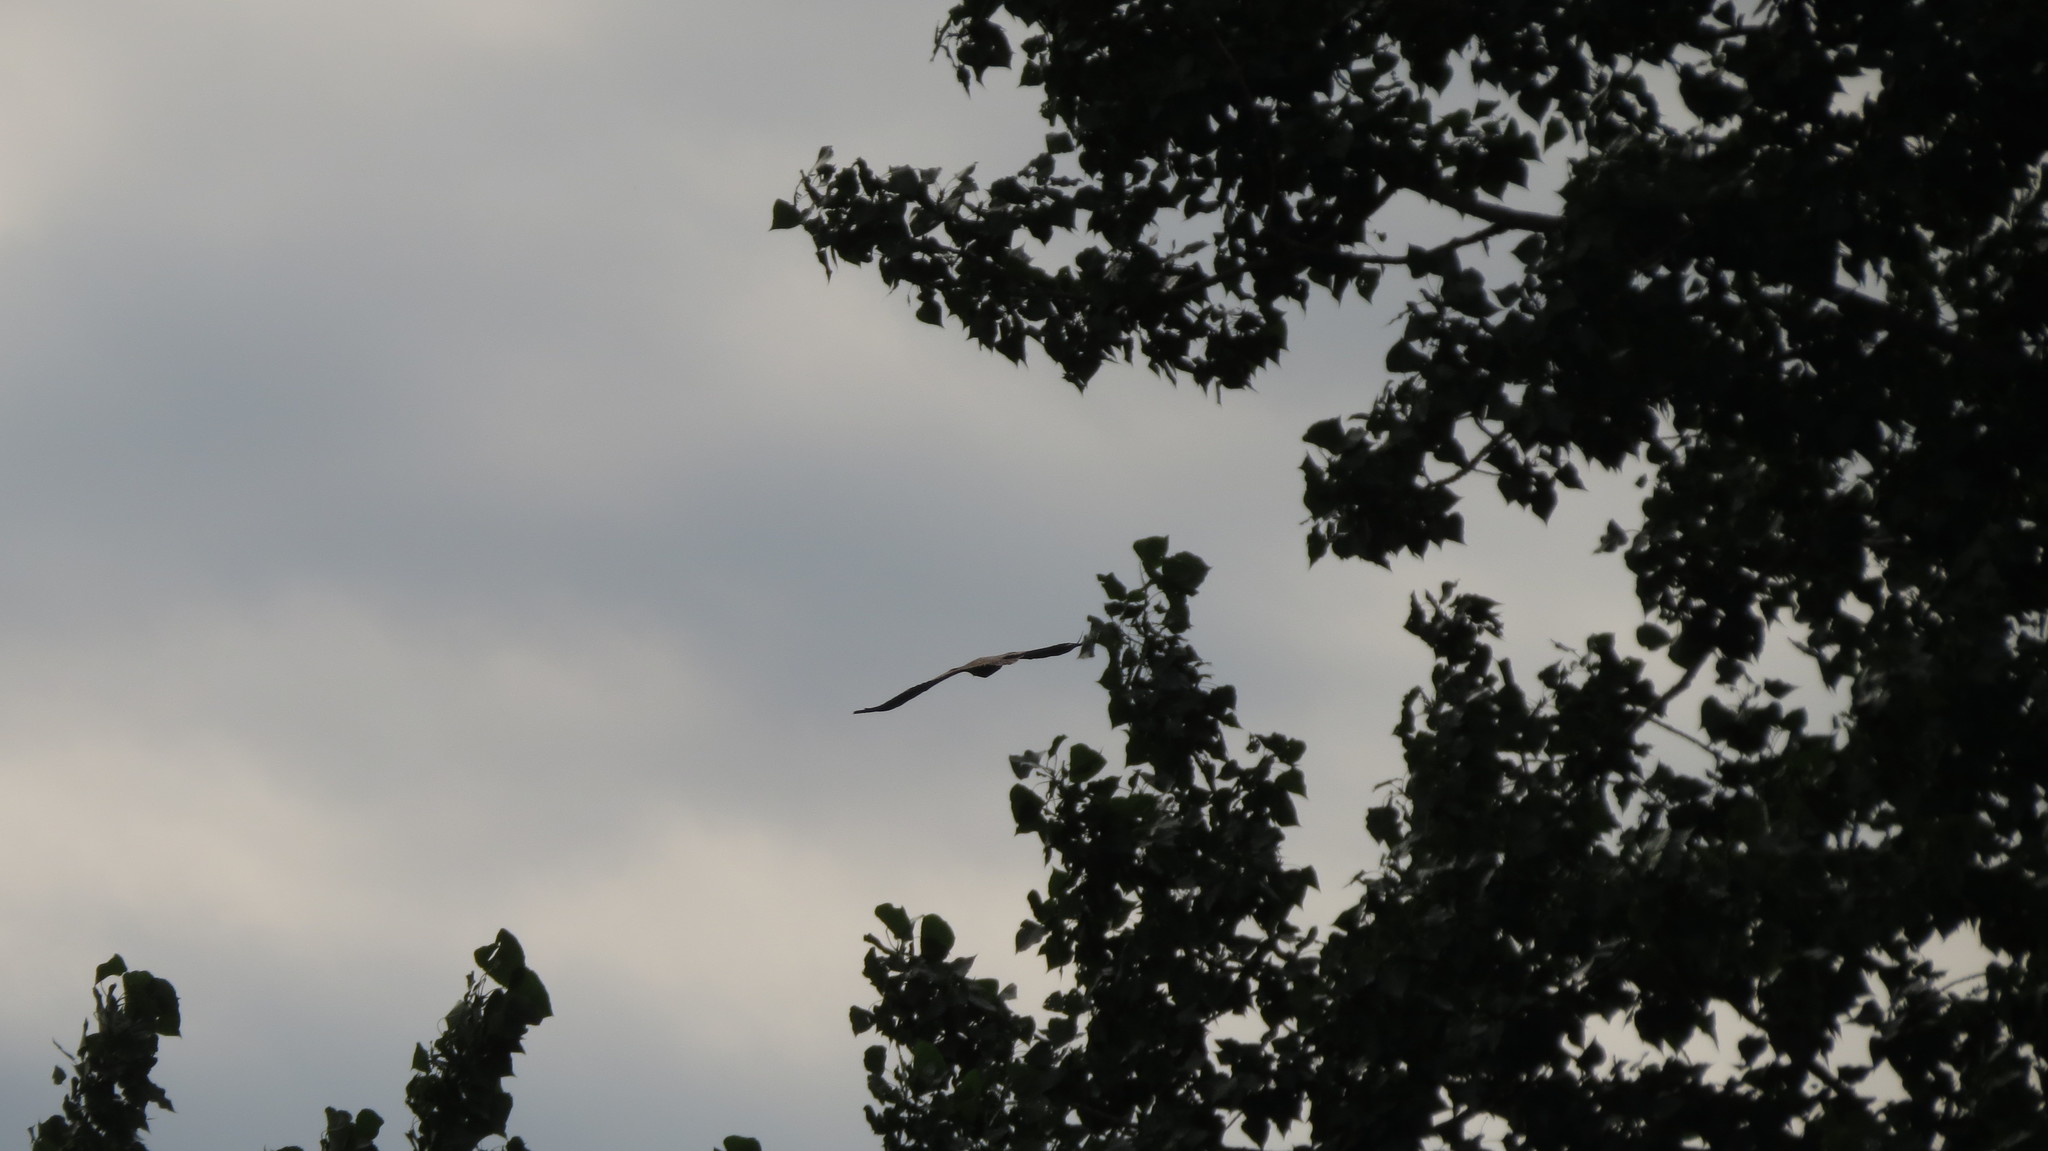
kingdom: Animalia
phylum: Chordata
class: Aves
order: Accipitriformes
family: Cathartidae
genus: Cathartes
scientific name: Cathartes aura
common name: Turkey vulture
